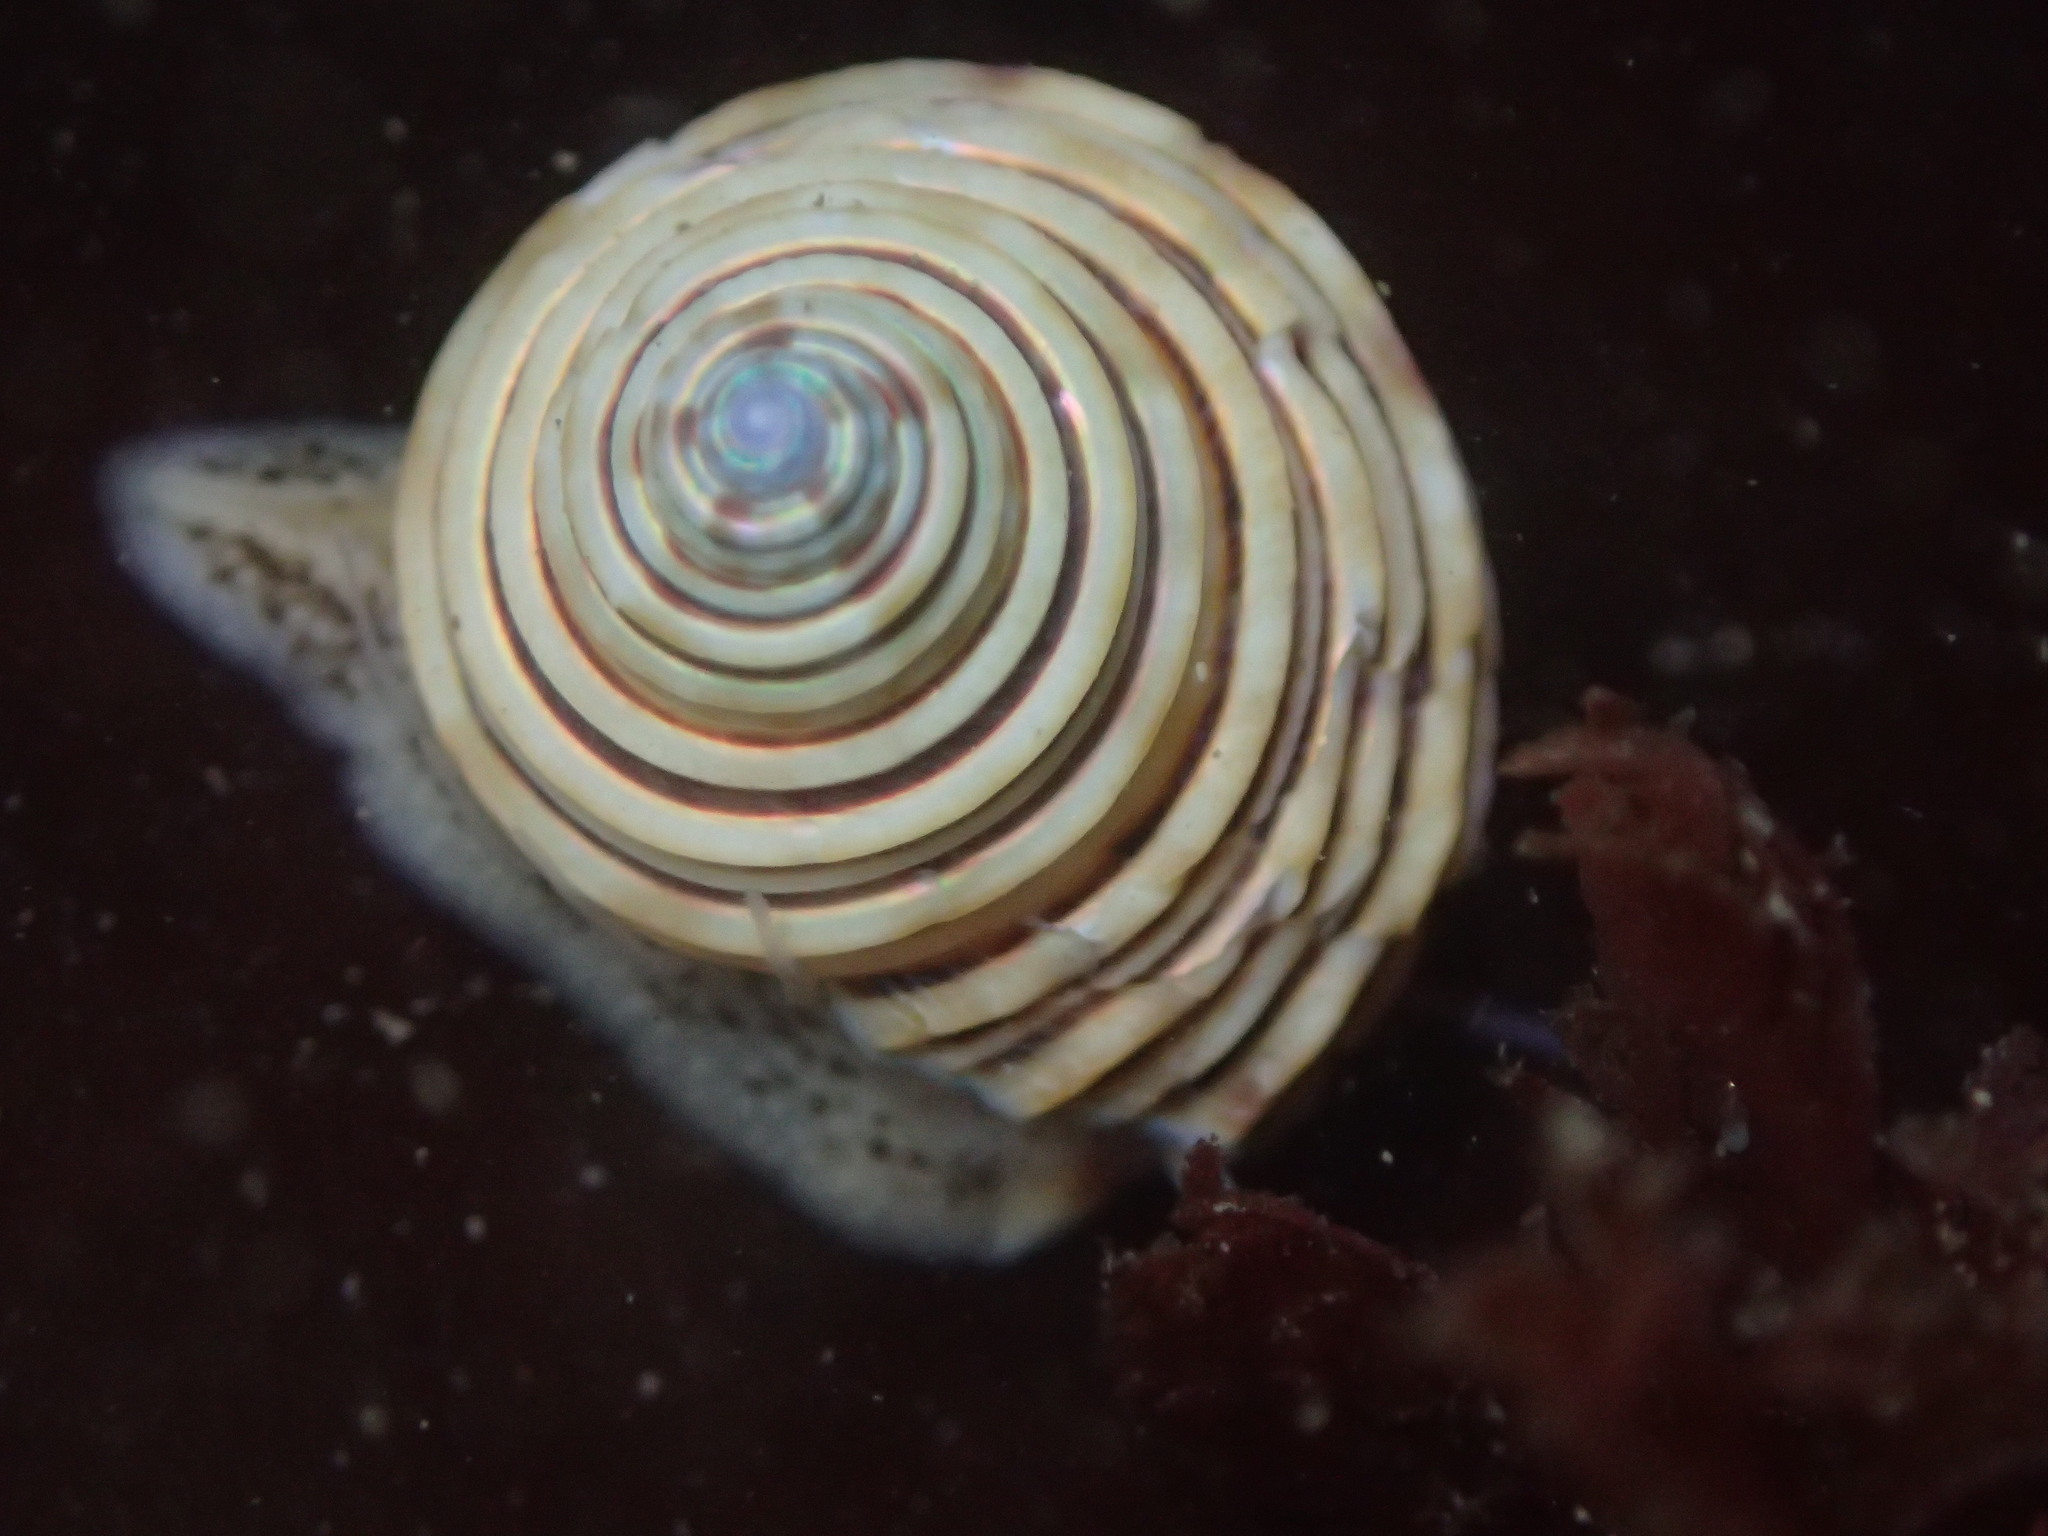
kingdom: Animalia
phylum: Mollusca
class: Gastropoda
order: Trochida
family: Calliostomatidae
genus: Calliostoma
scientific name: Calliostoma canaliculatum
